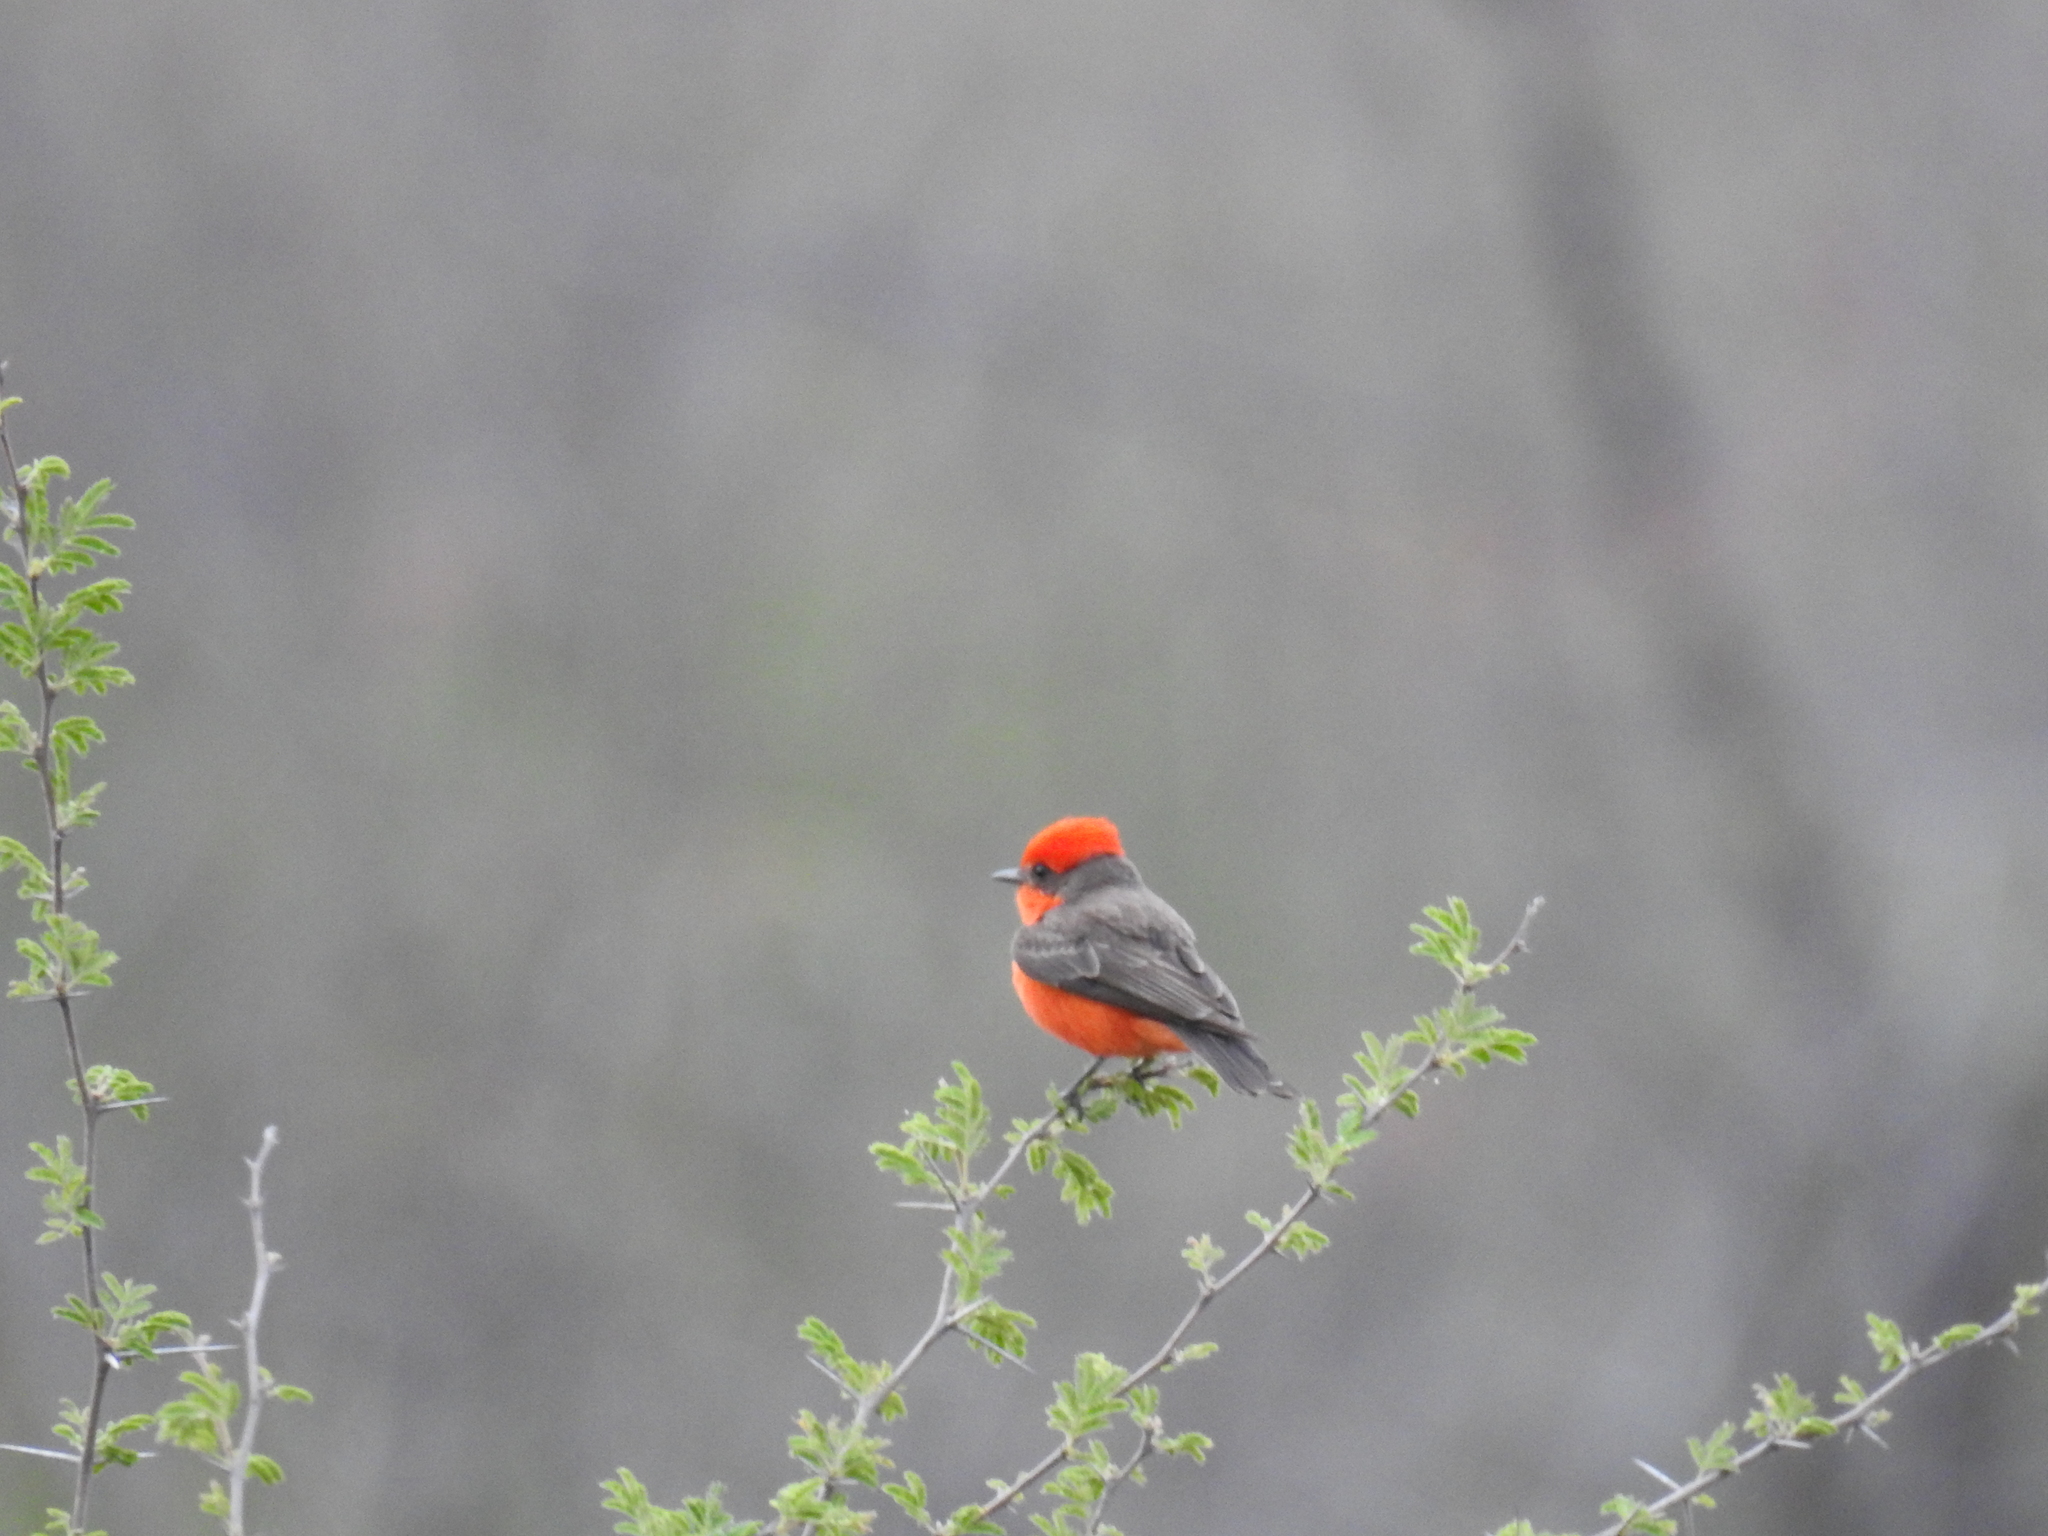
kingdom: Animalia
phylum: Chordata
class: Aves
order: Passeriformes
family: Tyrannidae
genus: Pyrocephalus
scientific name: Pyrocephalus rubinus
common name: Vermilion flycatcher
